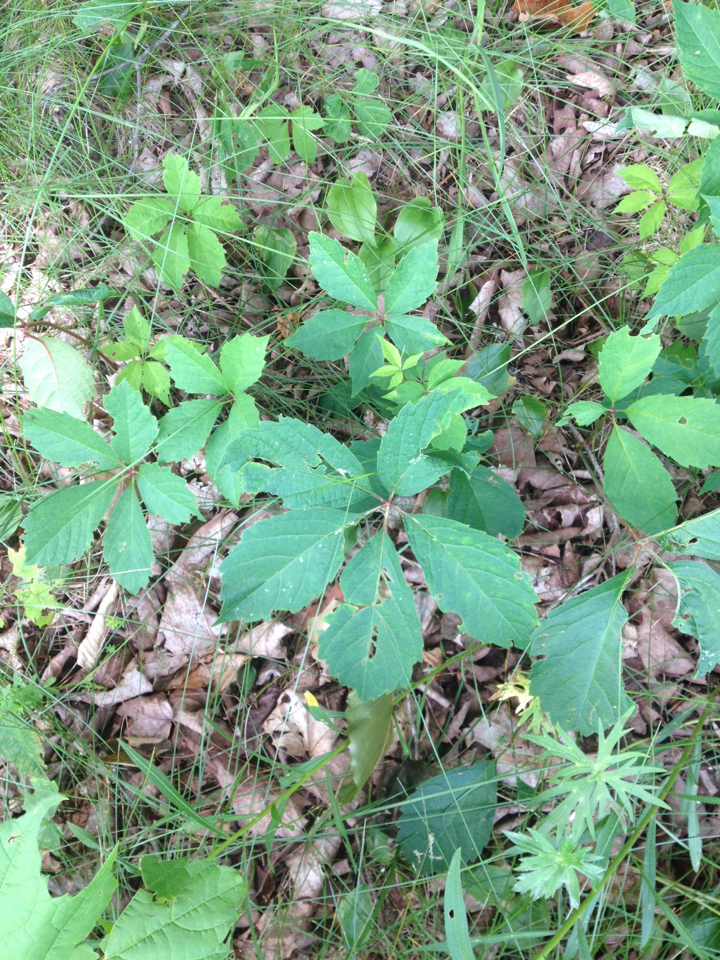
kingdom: Plantae
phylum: Tracheophyta
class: Magnoliopsida
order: Vitales
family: Vitaceae
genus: Parthenocissus
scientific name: Parthenocissus quinquefolia
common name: Virginia-creeper
